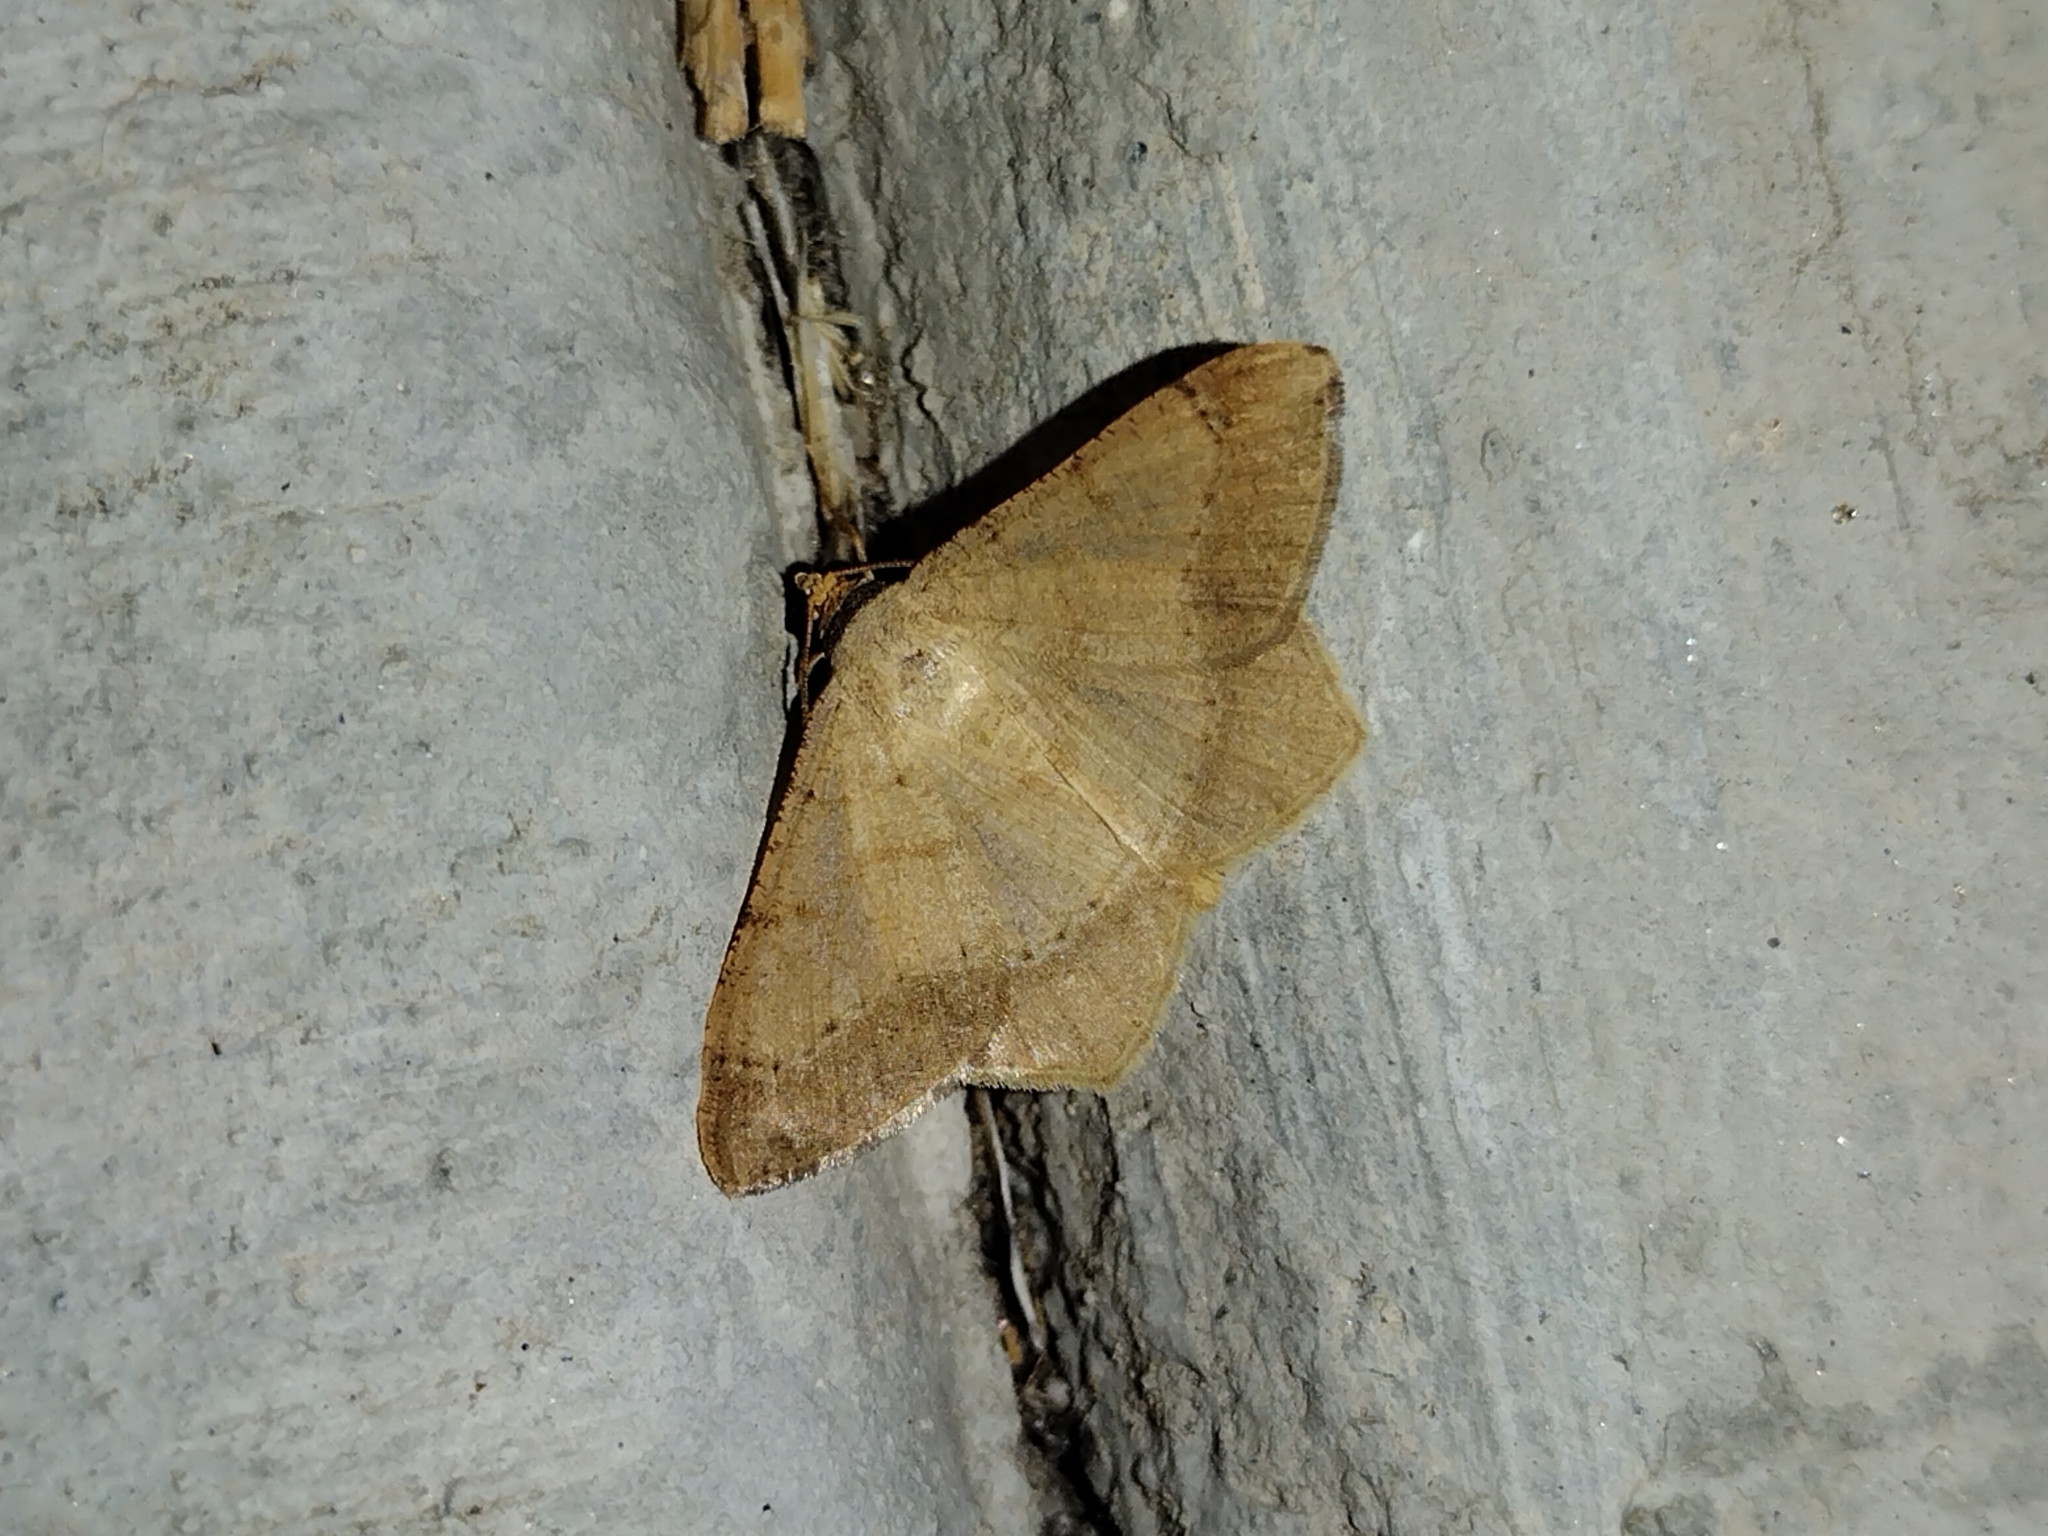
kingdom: Animalia
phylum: Arthropoda
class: Insecta
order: Lepidoptera
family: Geometridae
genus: Macaria
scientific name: Macaria abydata
